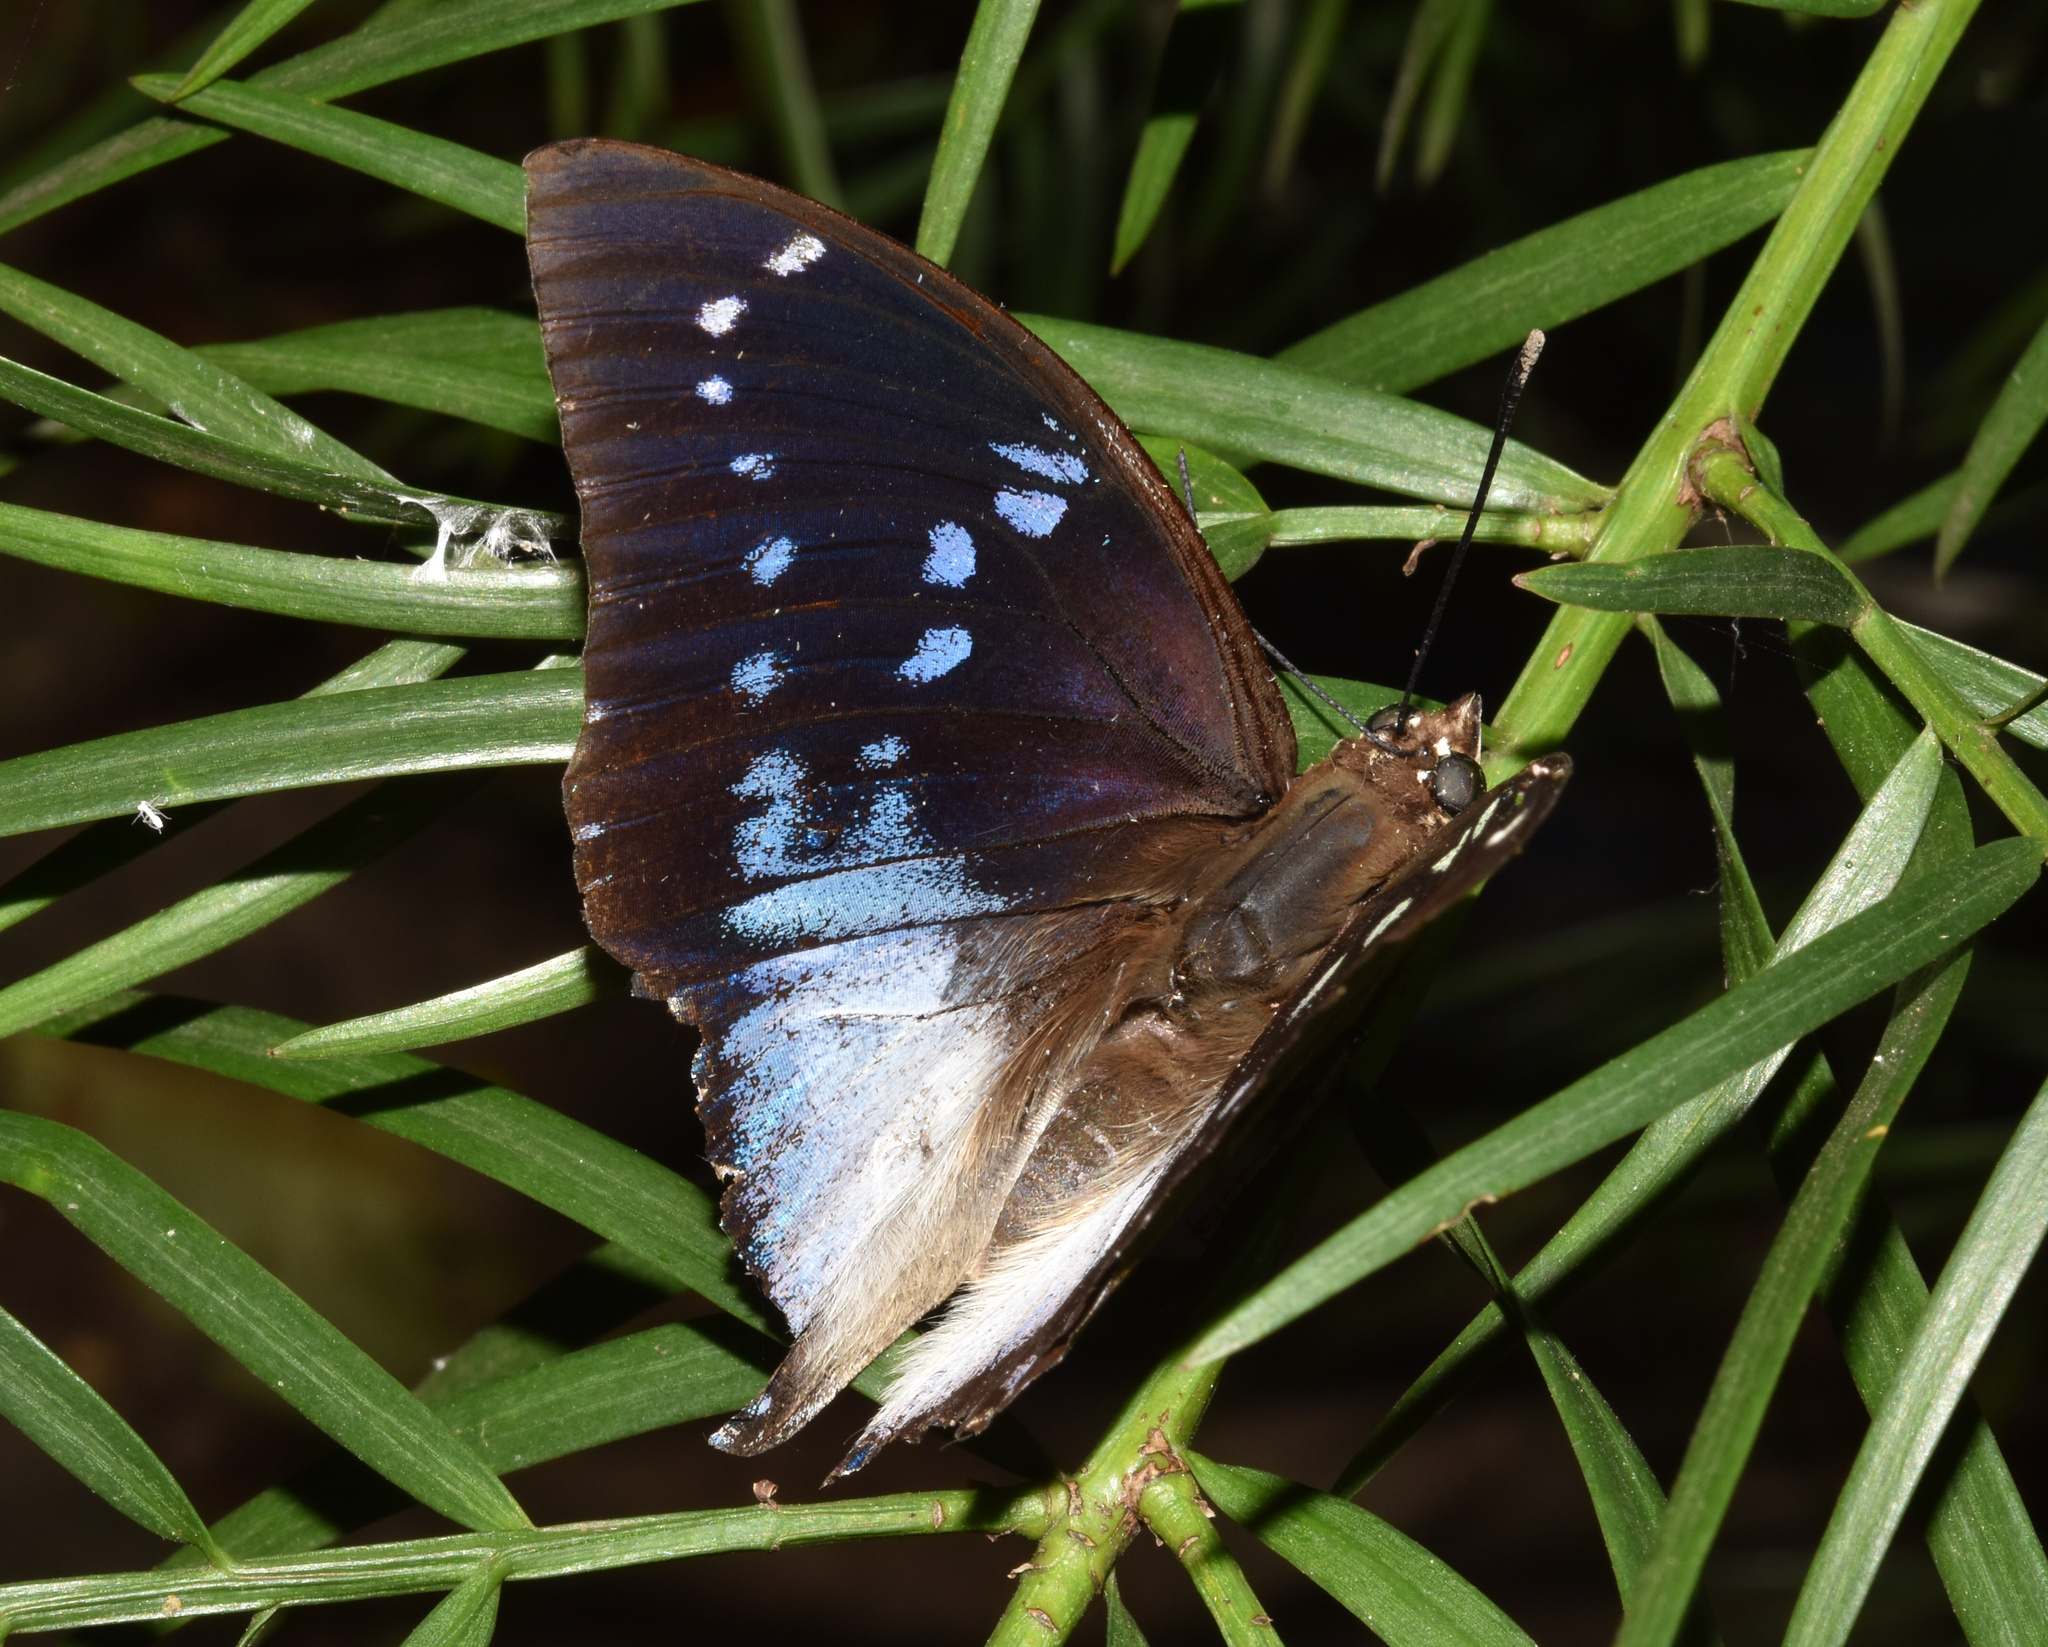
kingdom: Animalia
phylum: Arthropoda
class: Insecta
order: Lepidoptera
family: Nymphalidae
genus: Charaxes
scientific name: Charaxes cithaeron
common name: Blue-spotted charaxes
